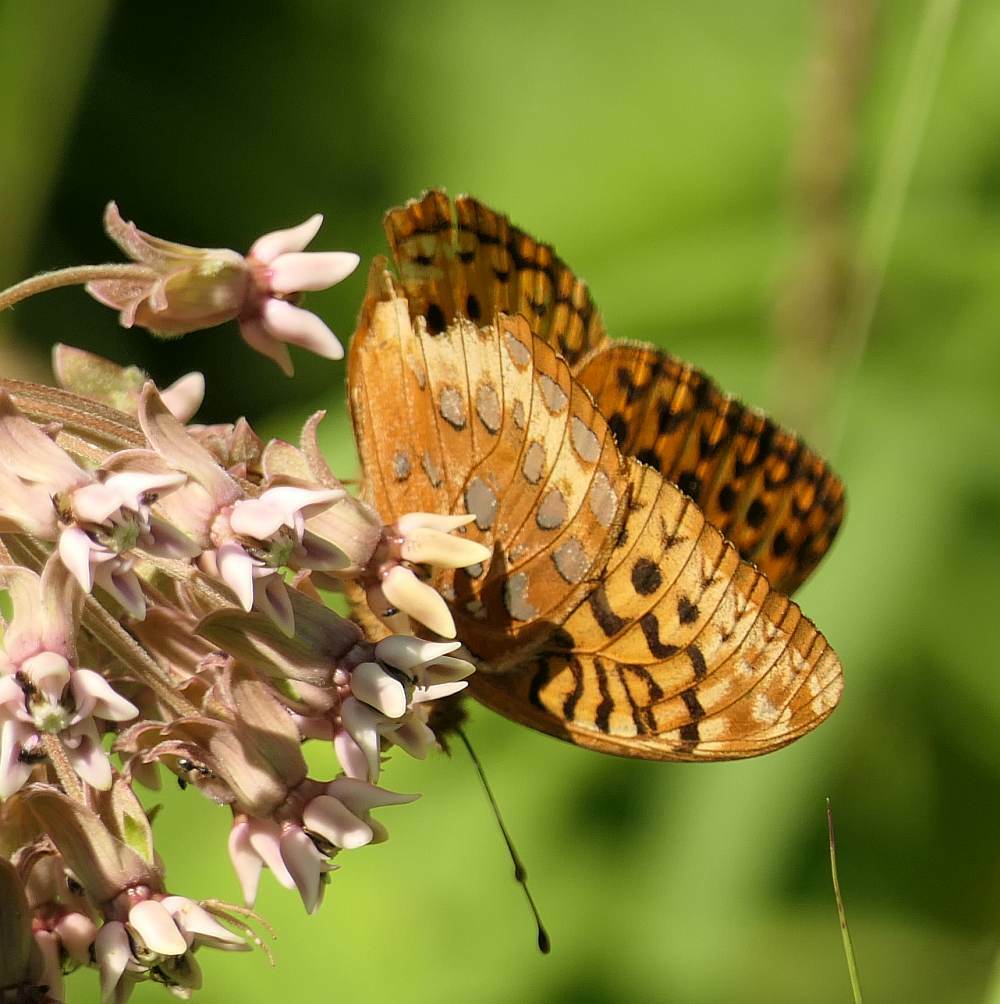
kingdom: Animalia
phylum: Arthropoda
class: Insecta
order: Lepidoptera
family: Nymphalidae
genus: Speyeria
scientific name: Speyeria cybele
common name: Great spangled fritillary
